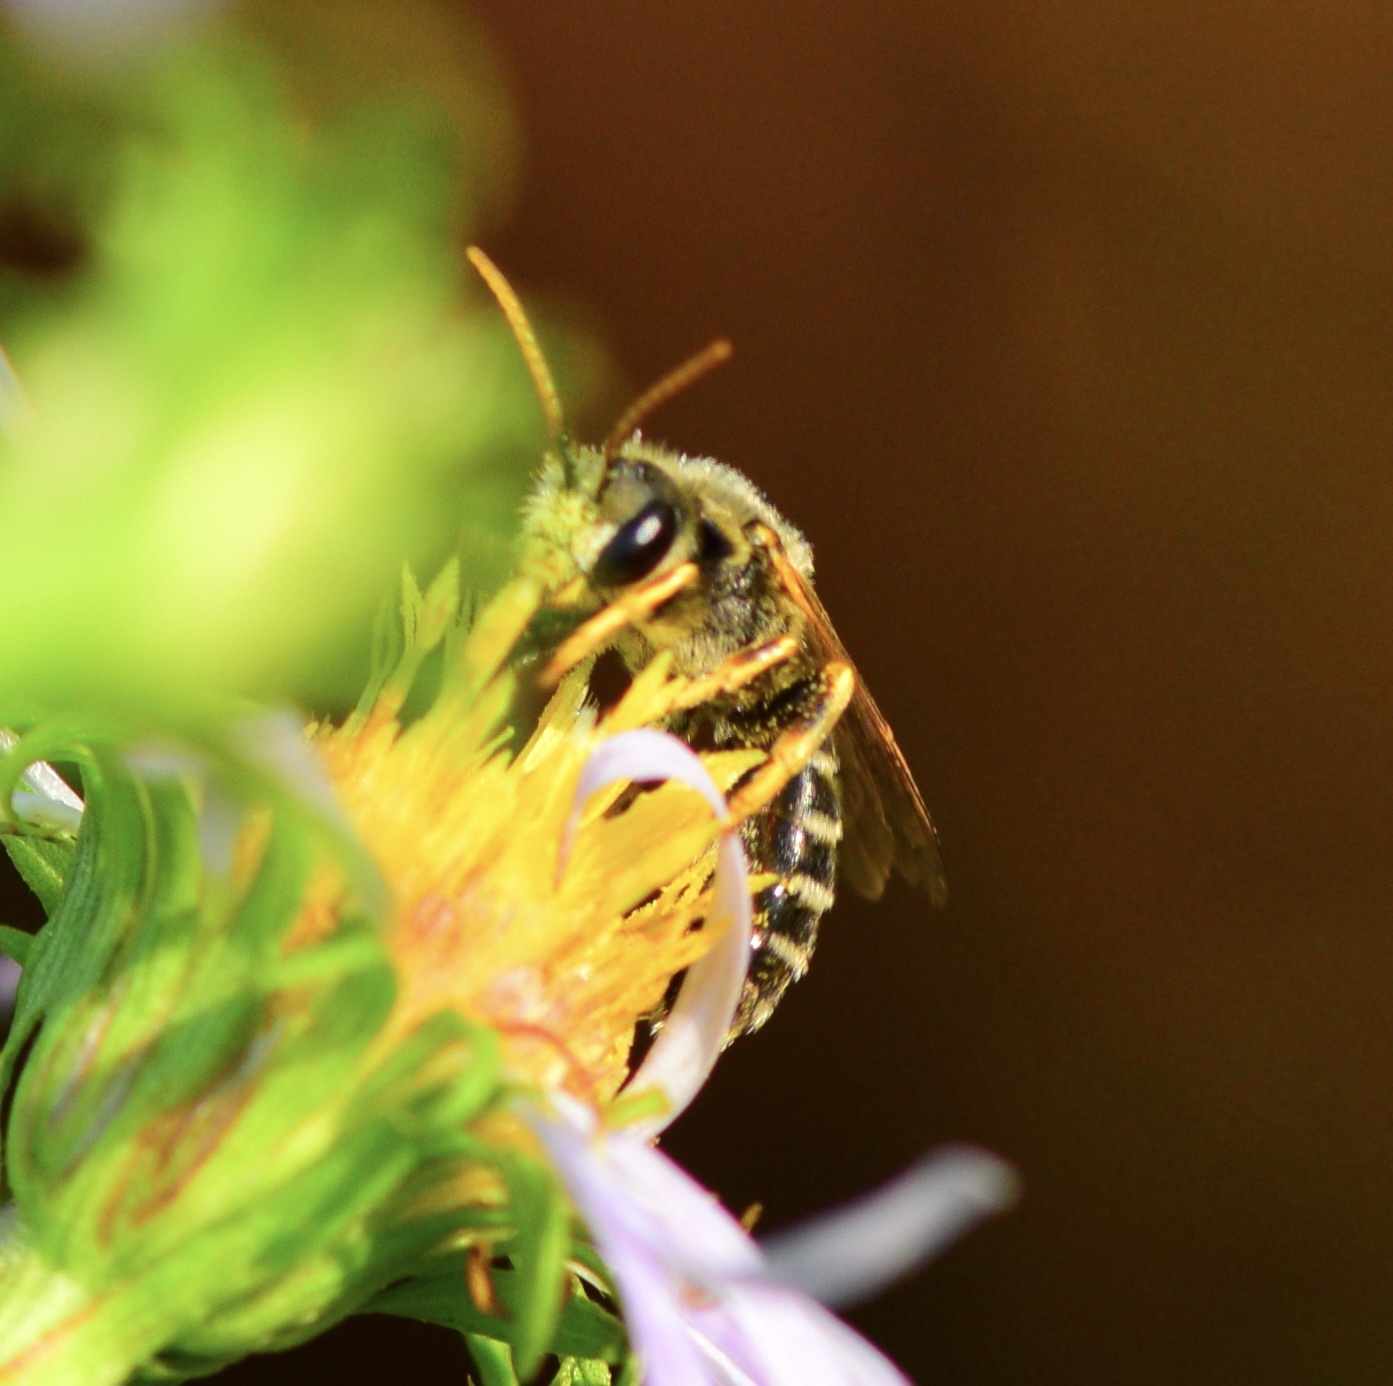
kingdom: Animalia
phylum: Arthropoda
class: Insecta
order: Hymenoptera
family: Halictidae
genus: Halictus
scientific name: Halictus ligatus
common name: Ligated furrow bee
